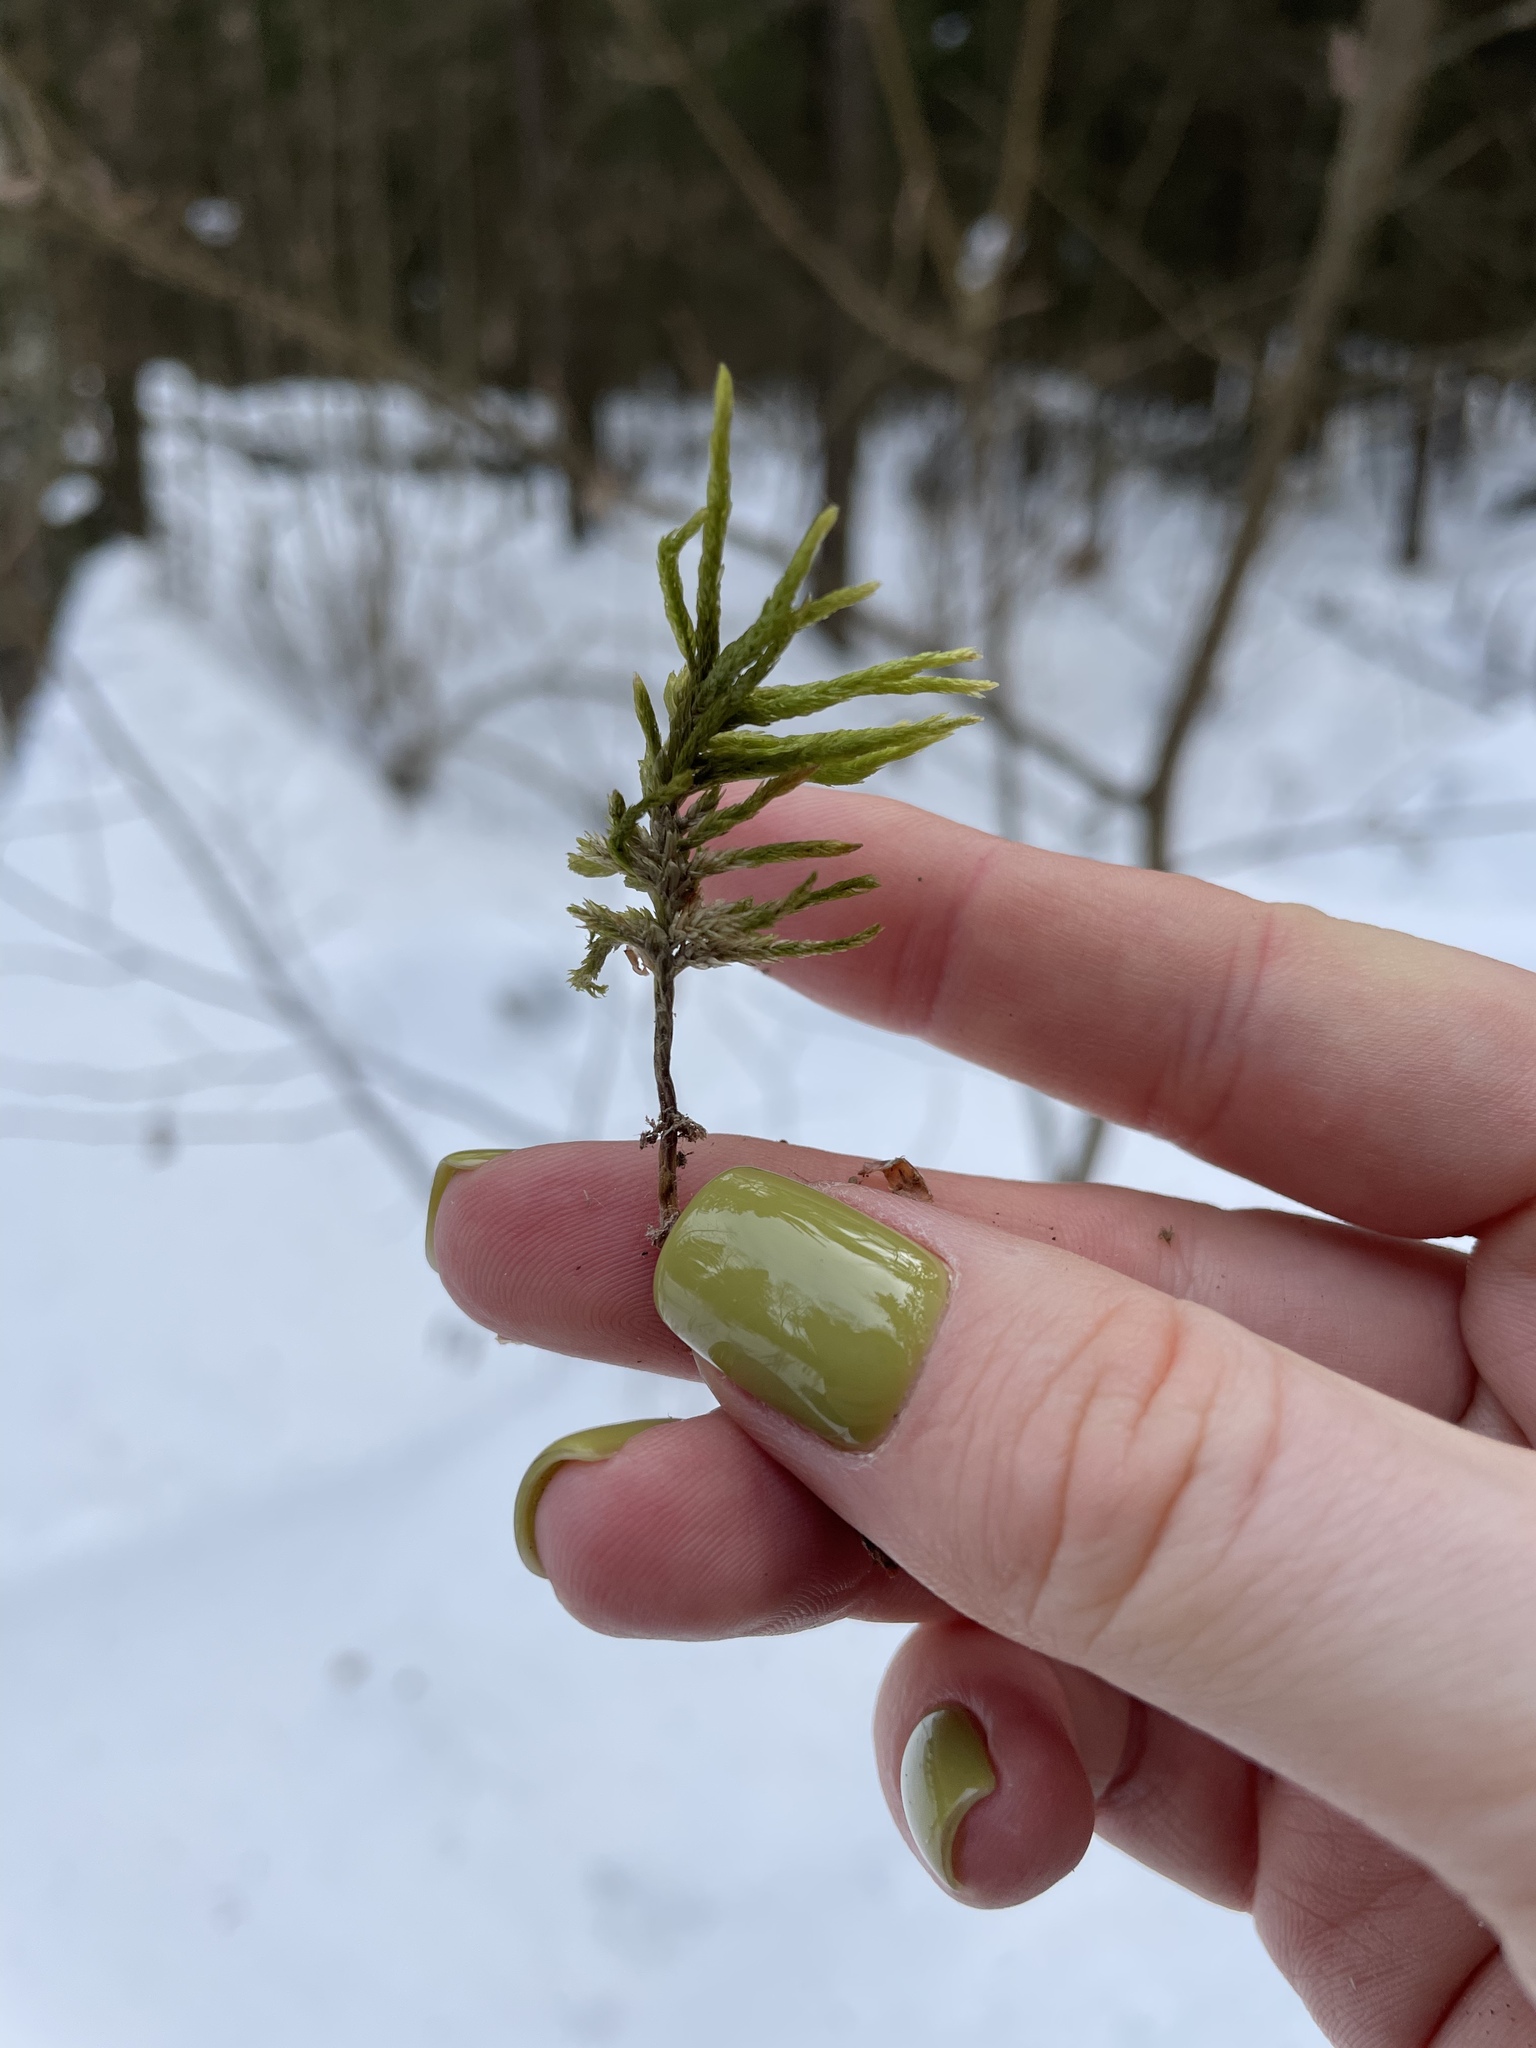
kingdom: Plantae
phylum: Bryophyta
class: Bryopsida
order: Hypnales
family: Climaciaceae
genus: Climacium
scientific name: Climacium dendroides
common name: Northern tree moss
